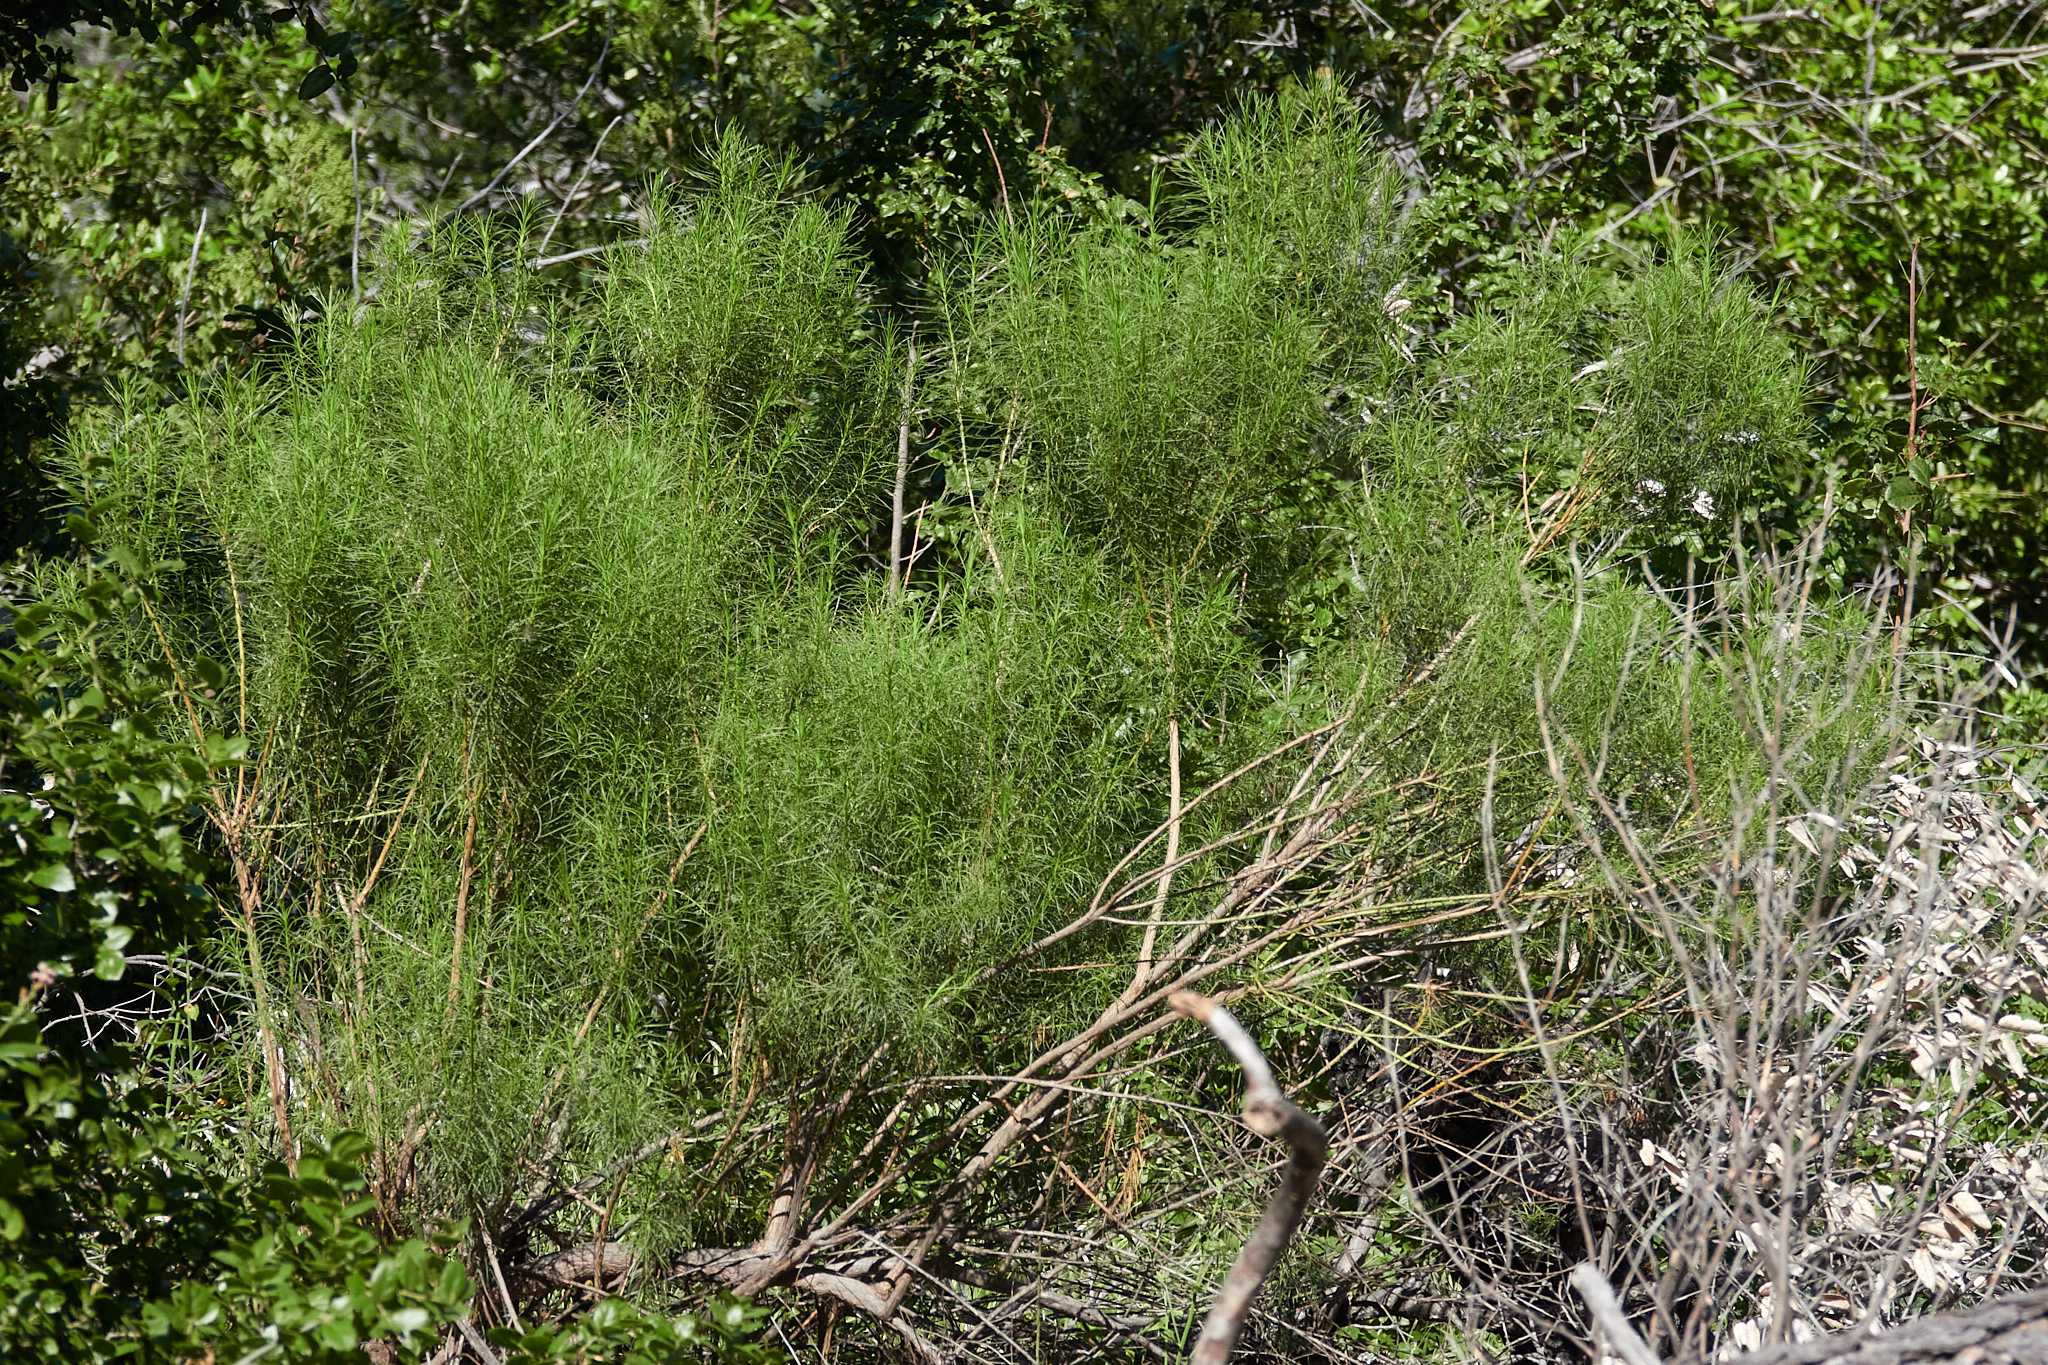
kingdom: Plantae
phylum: Tracheophyta
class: Magnoliopsida
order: Asterales
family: Asteraceae
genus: Ericameria
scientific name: Ericameria arborescens
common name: Goldenfleece
